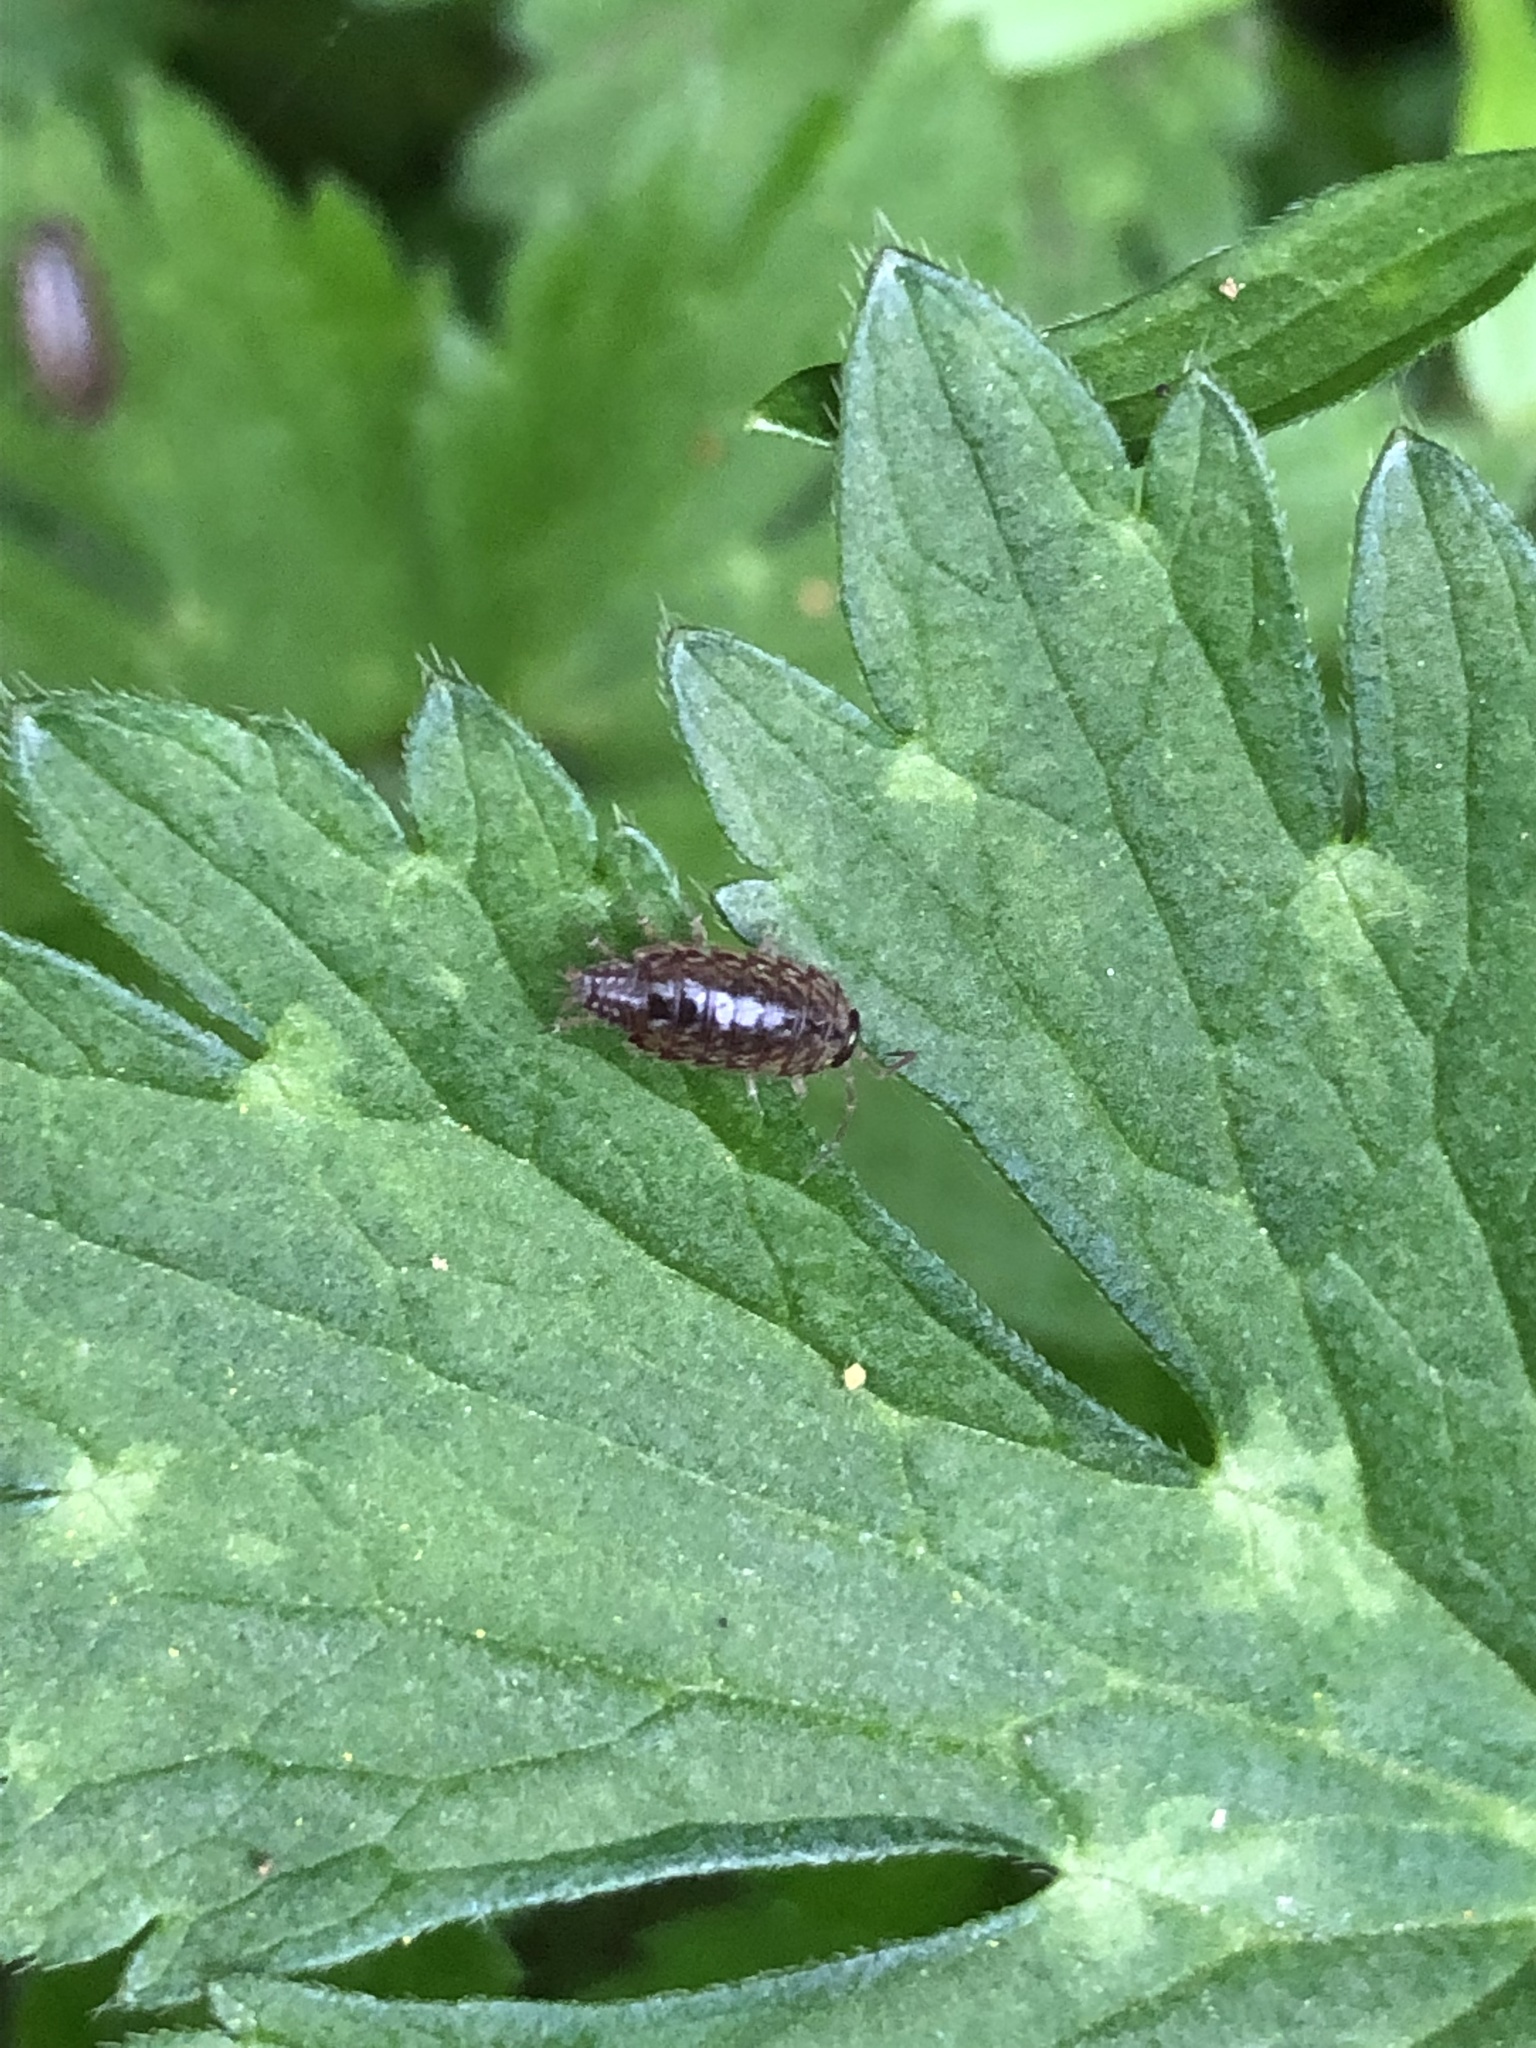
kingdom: Animalia
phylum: Arthropoda
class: Malacostraca
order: Isopoda
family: Philosciidae
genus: Philoscia
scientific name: Philoscia muscorum
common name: Common striped woodlouse
